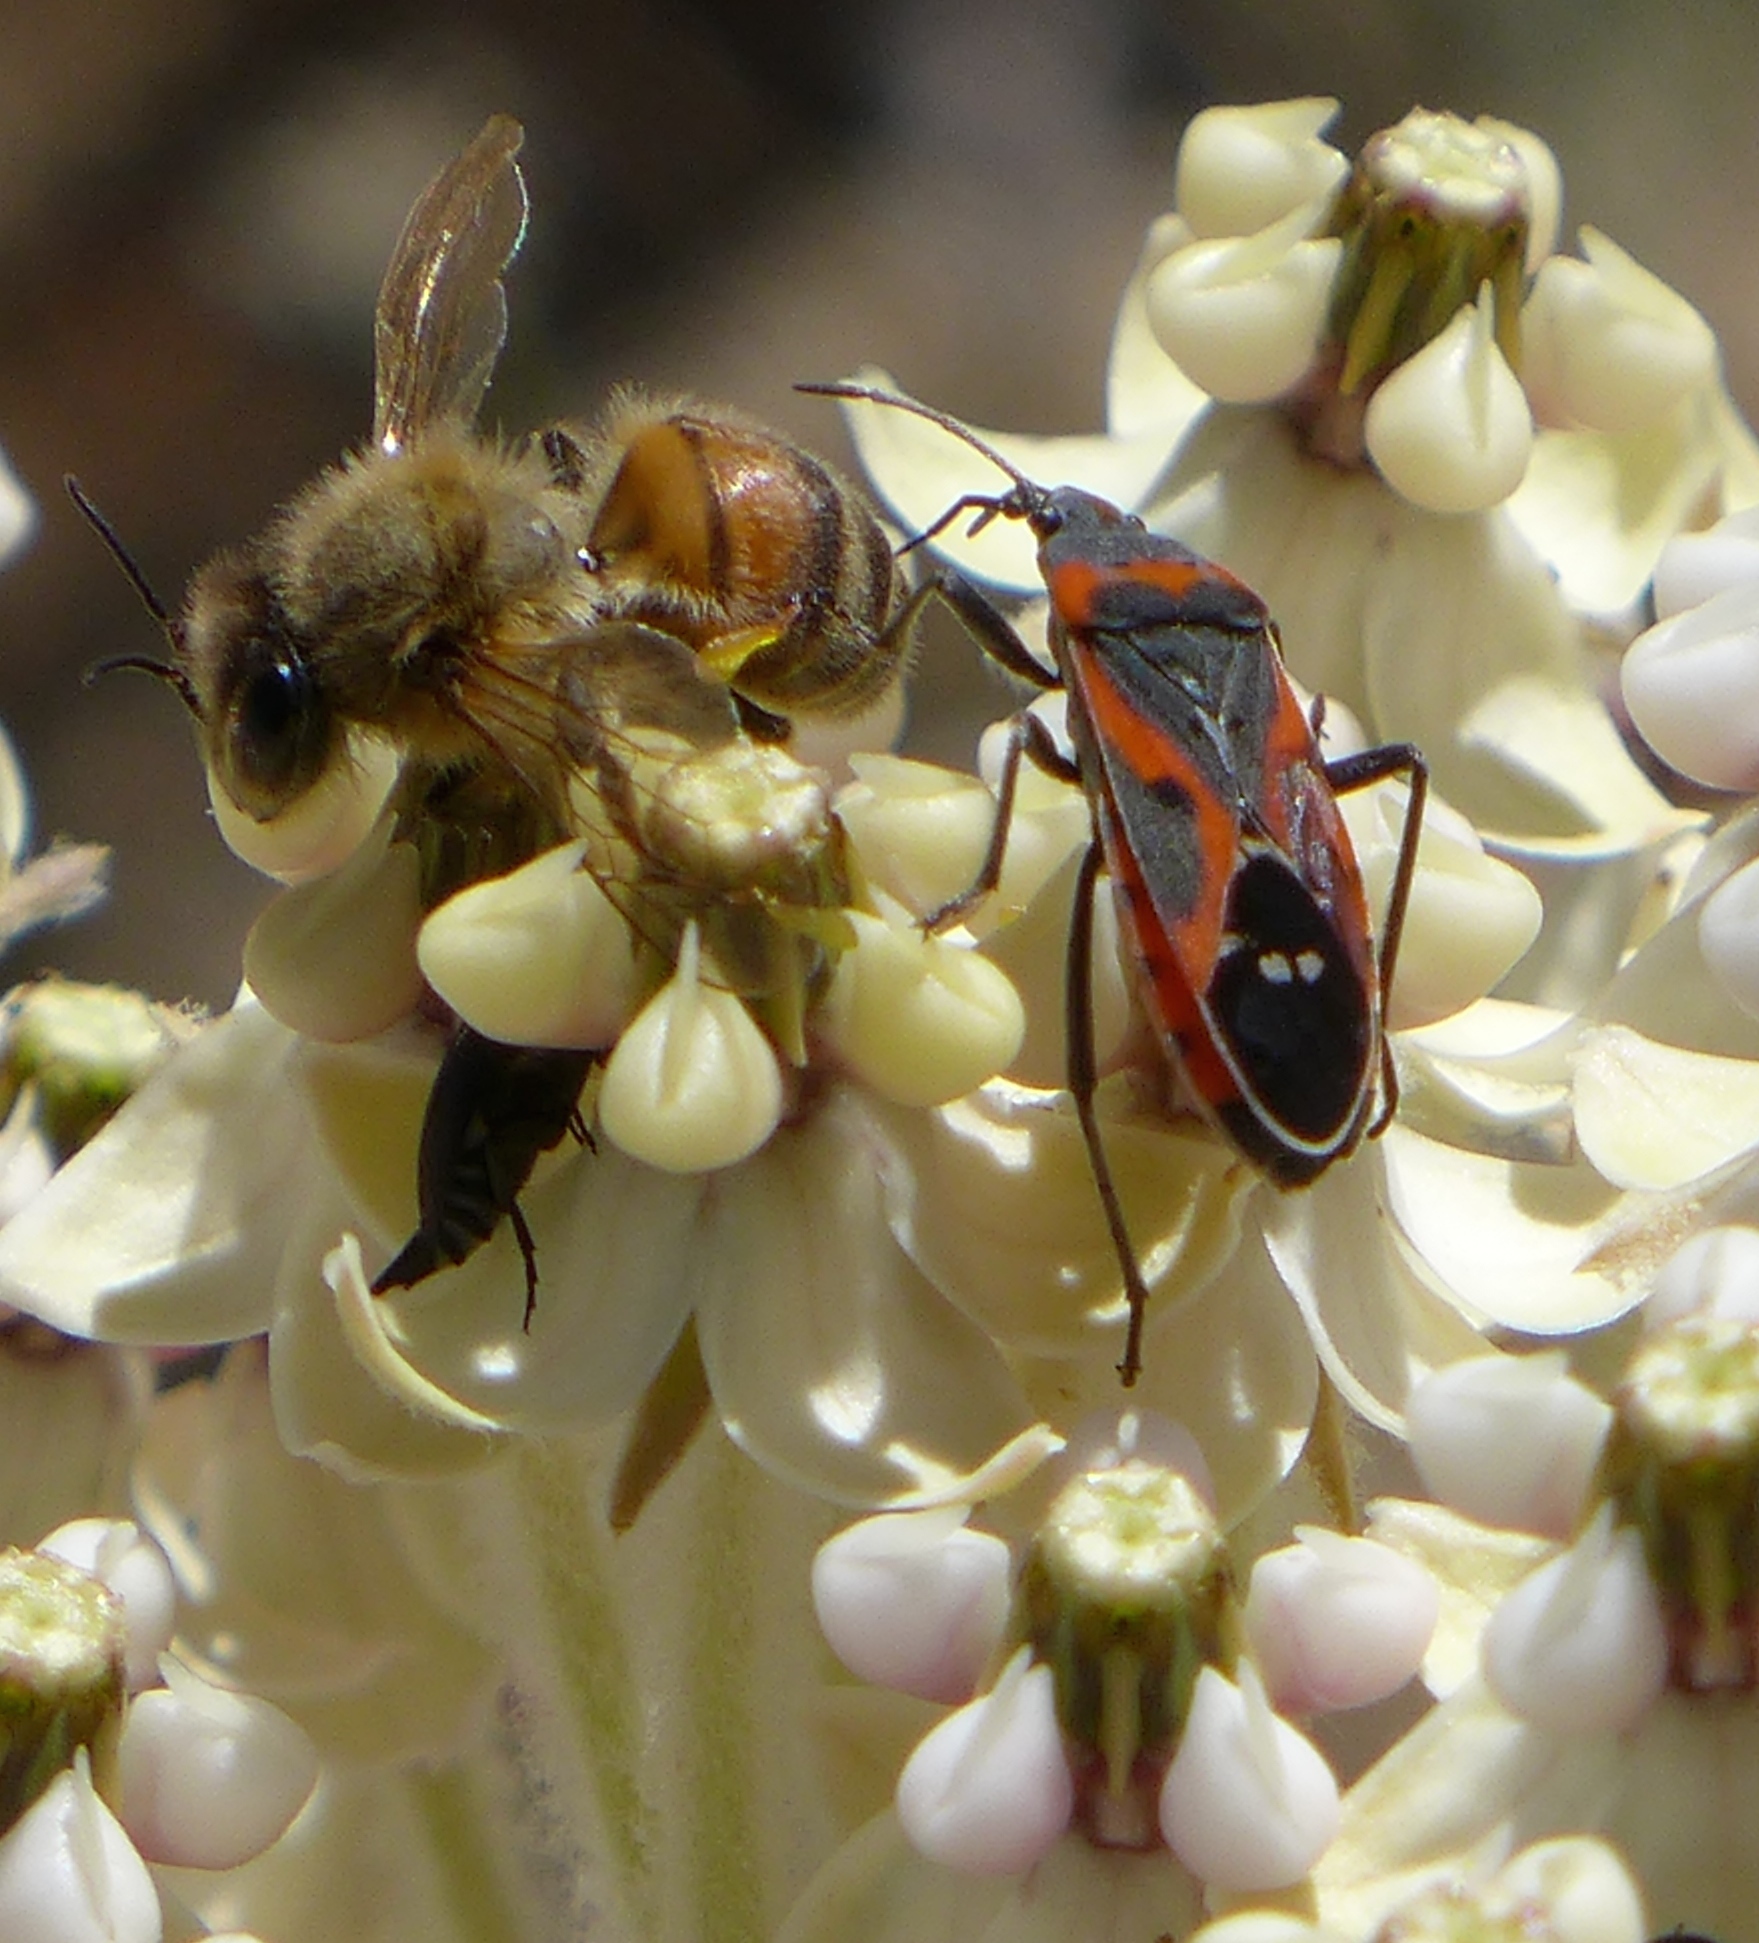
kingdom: Animalia
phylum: Arthropoda
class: Insecta
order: Hemiptera
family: Lygaeidae
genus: Lygaeus
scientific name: Lygaeus kalmii
